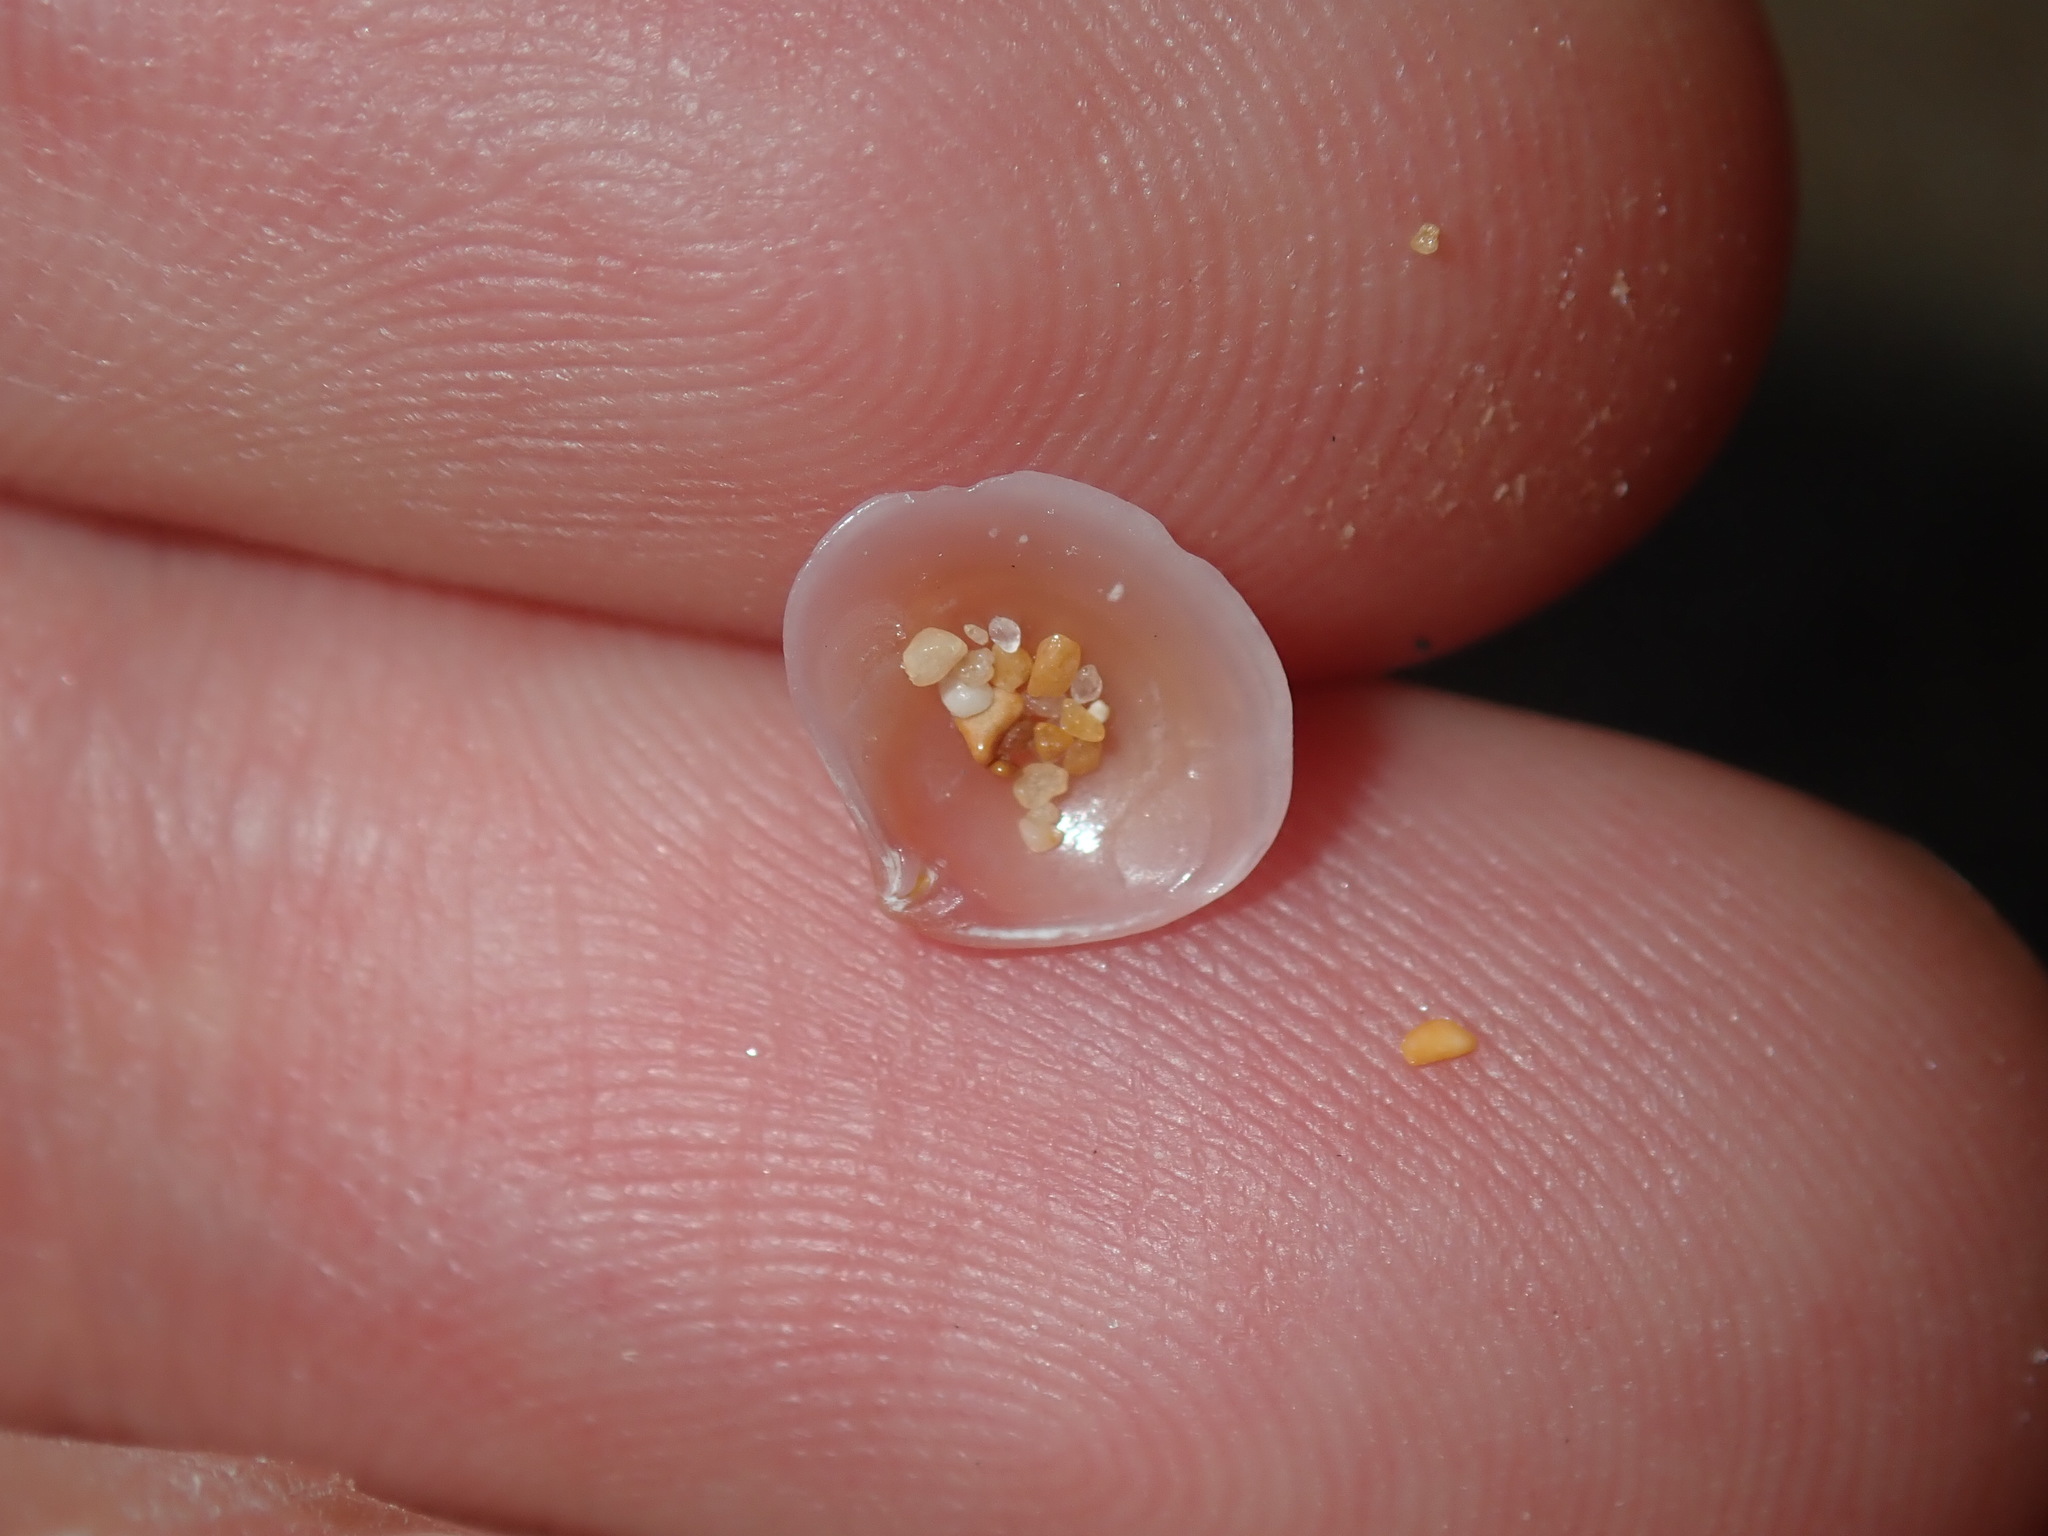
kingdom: Animalia
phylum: Mollusca
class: Bivalvia
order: Carditida
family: Crassatellidae
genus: Salaputium
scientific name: Salaputium fulvidum
